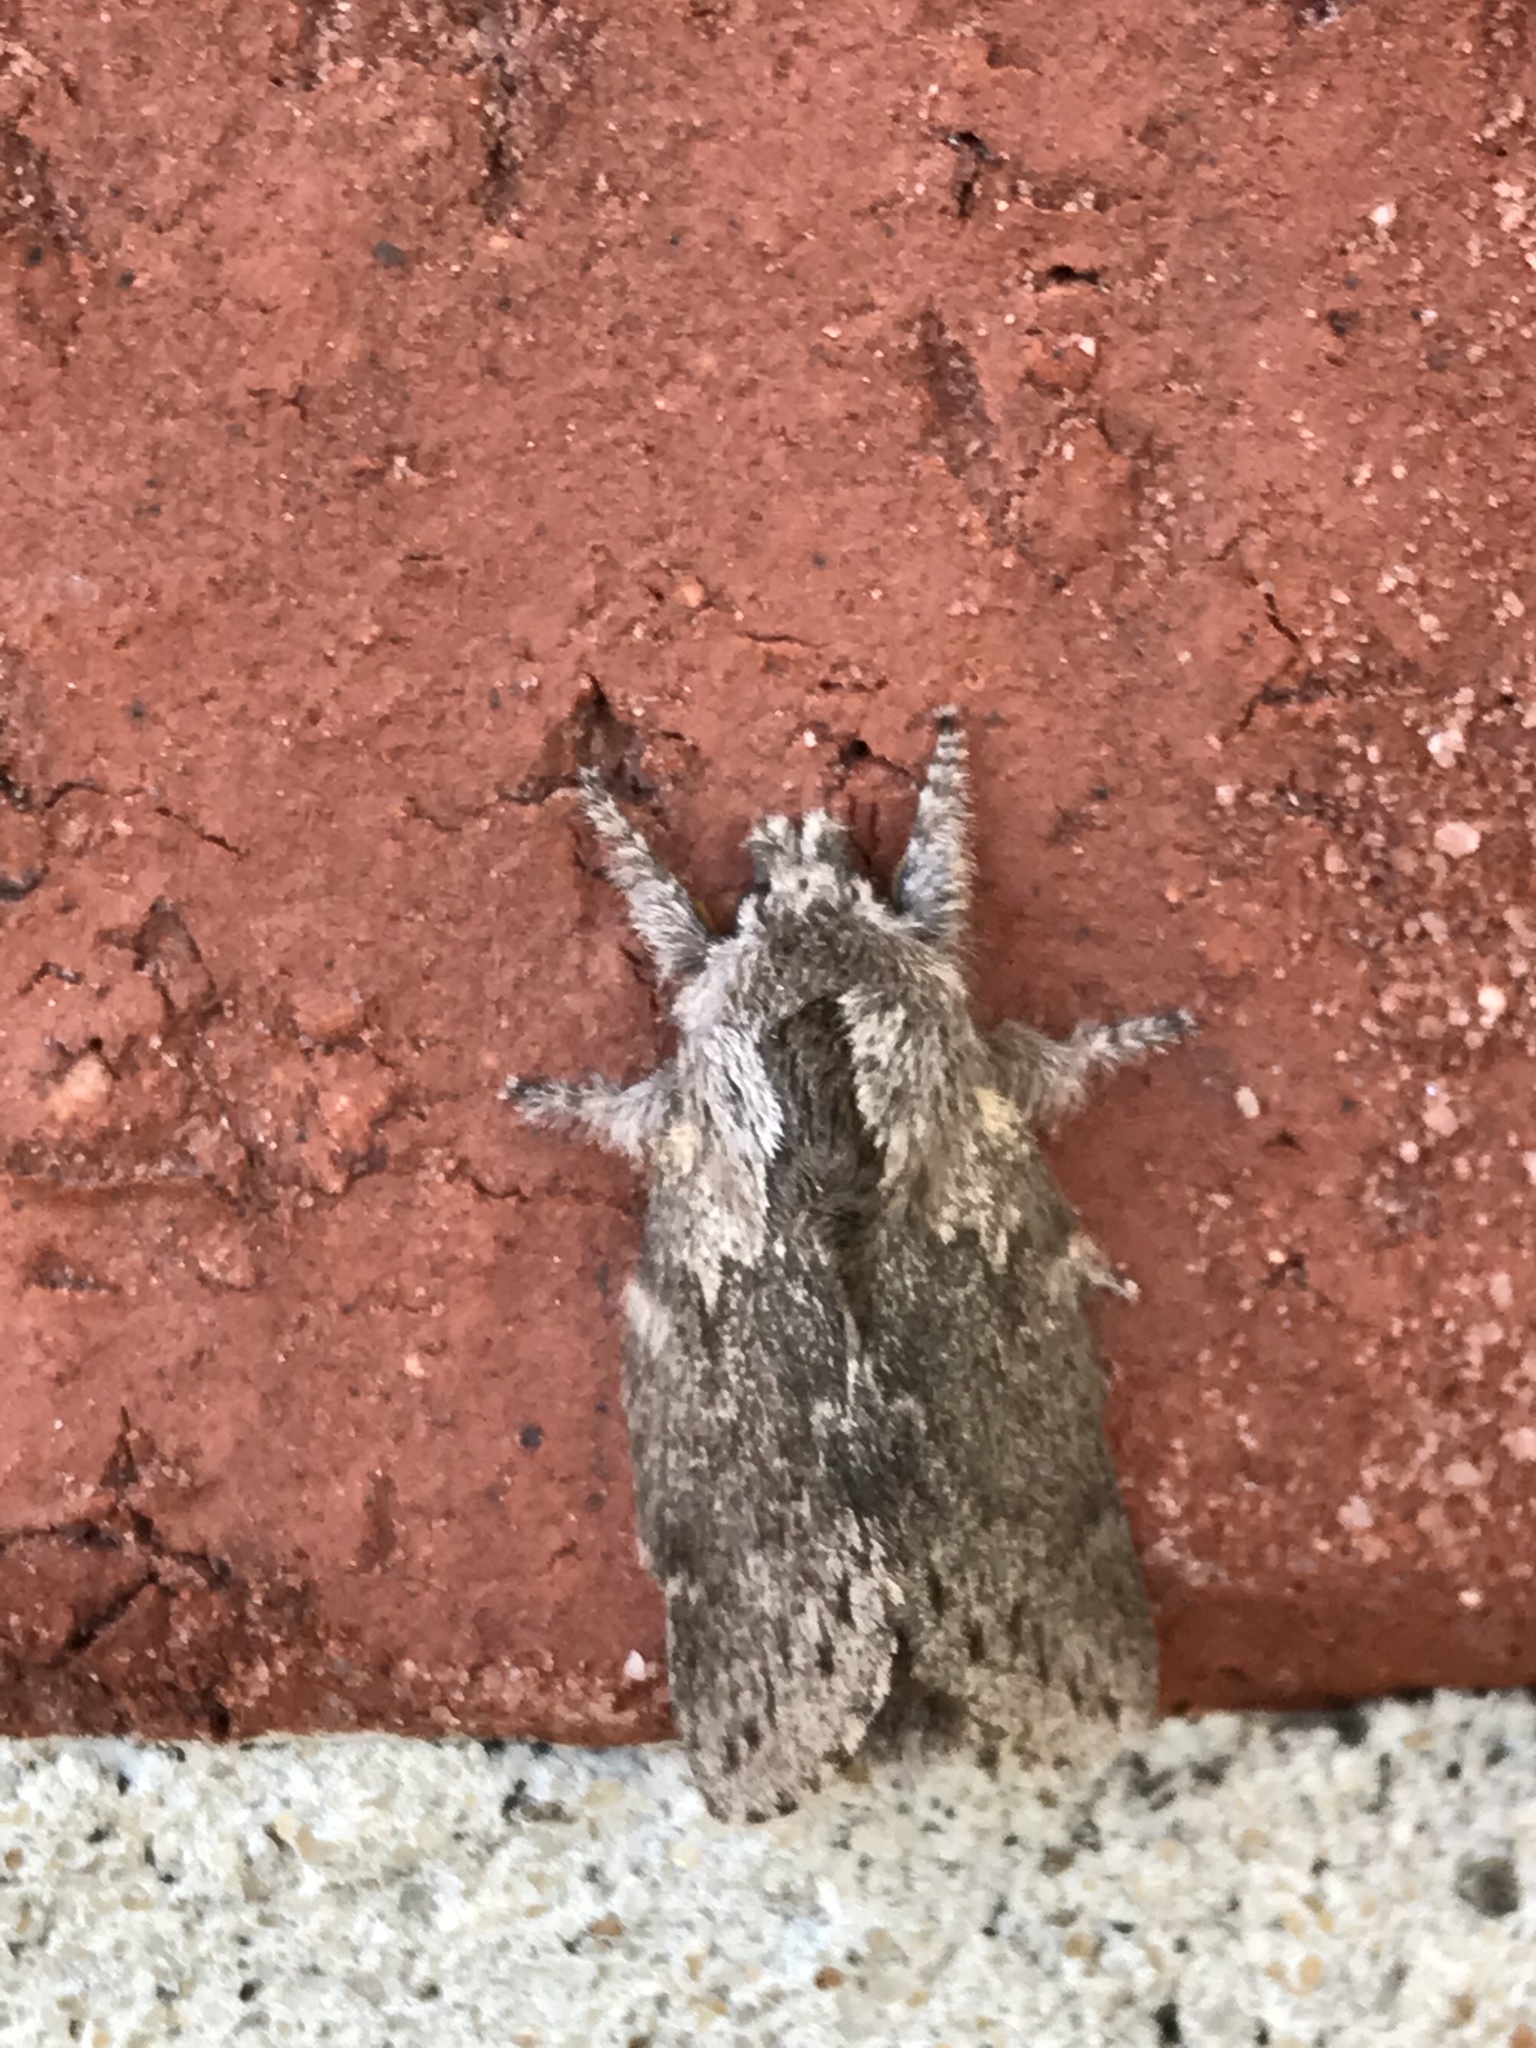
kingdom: Animalia
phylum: Arthropoda
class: Insecta
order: Lepidoptera
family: Lasiocampidae
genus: Heteropacha
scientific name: Heteropacha rileyana
